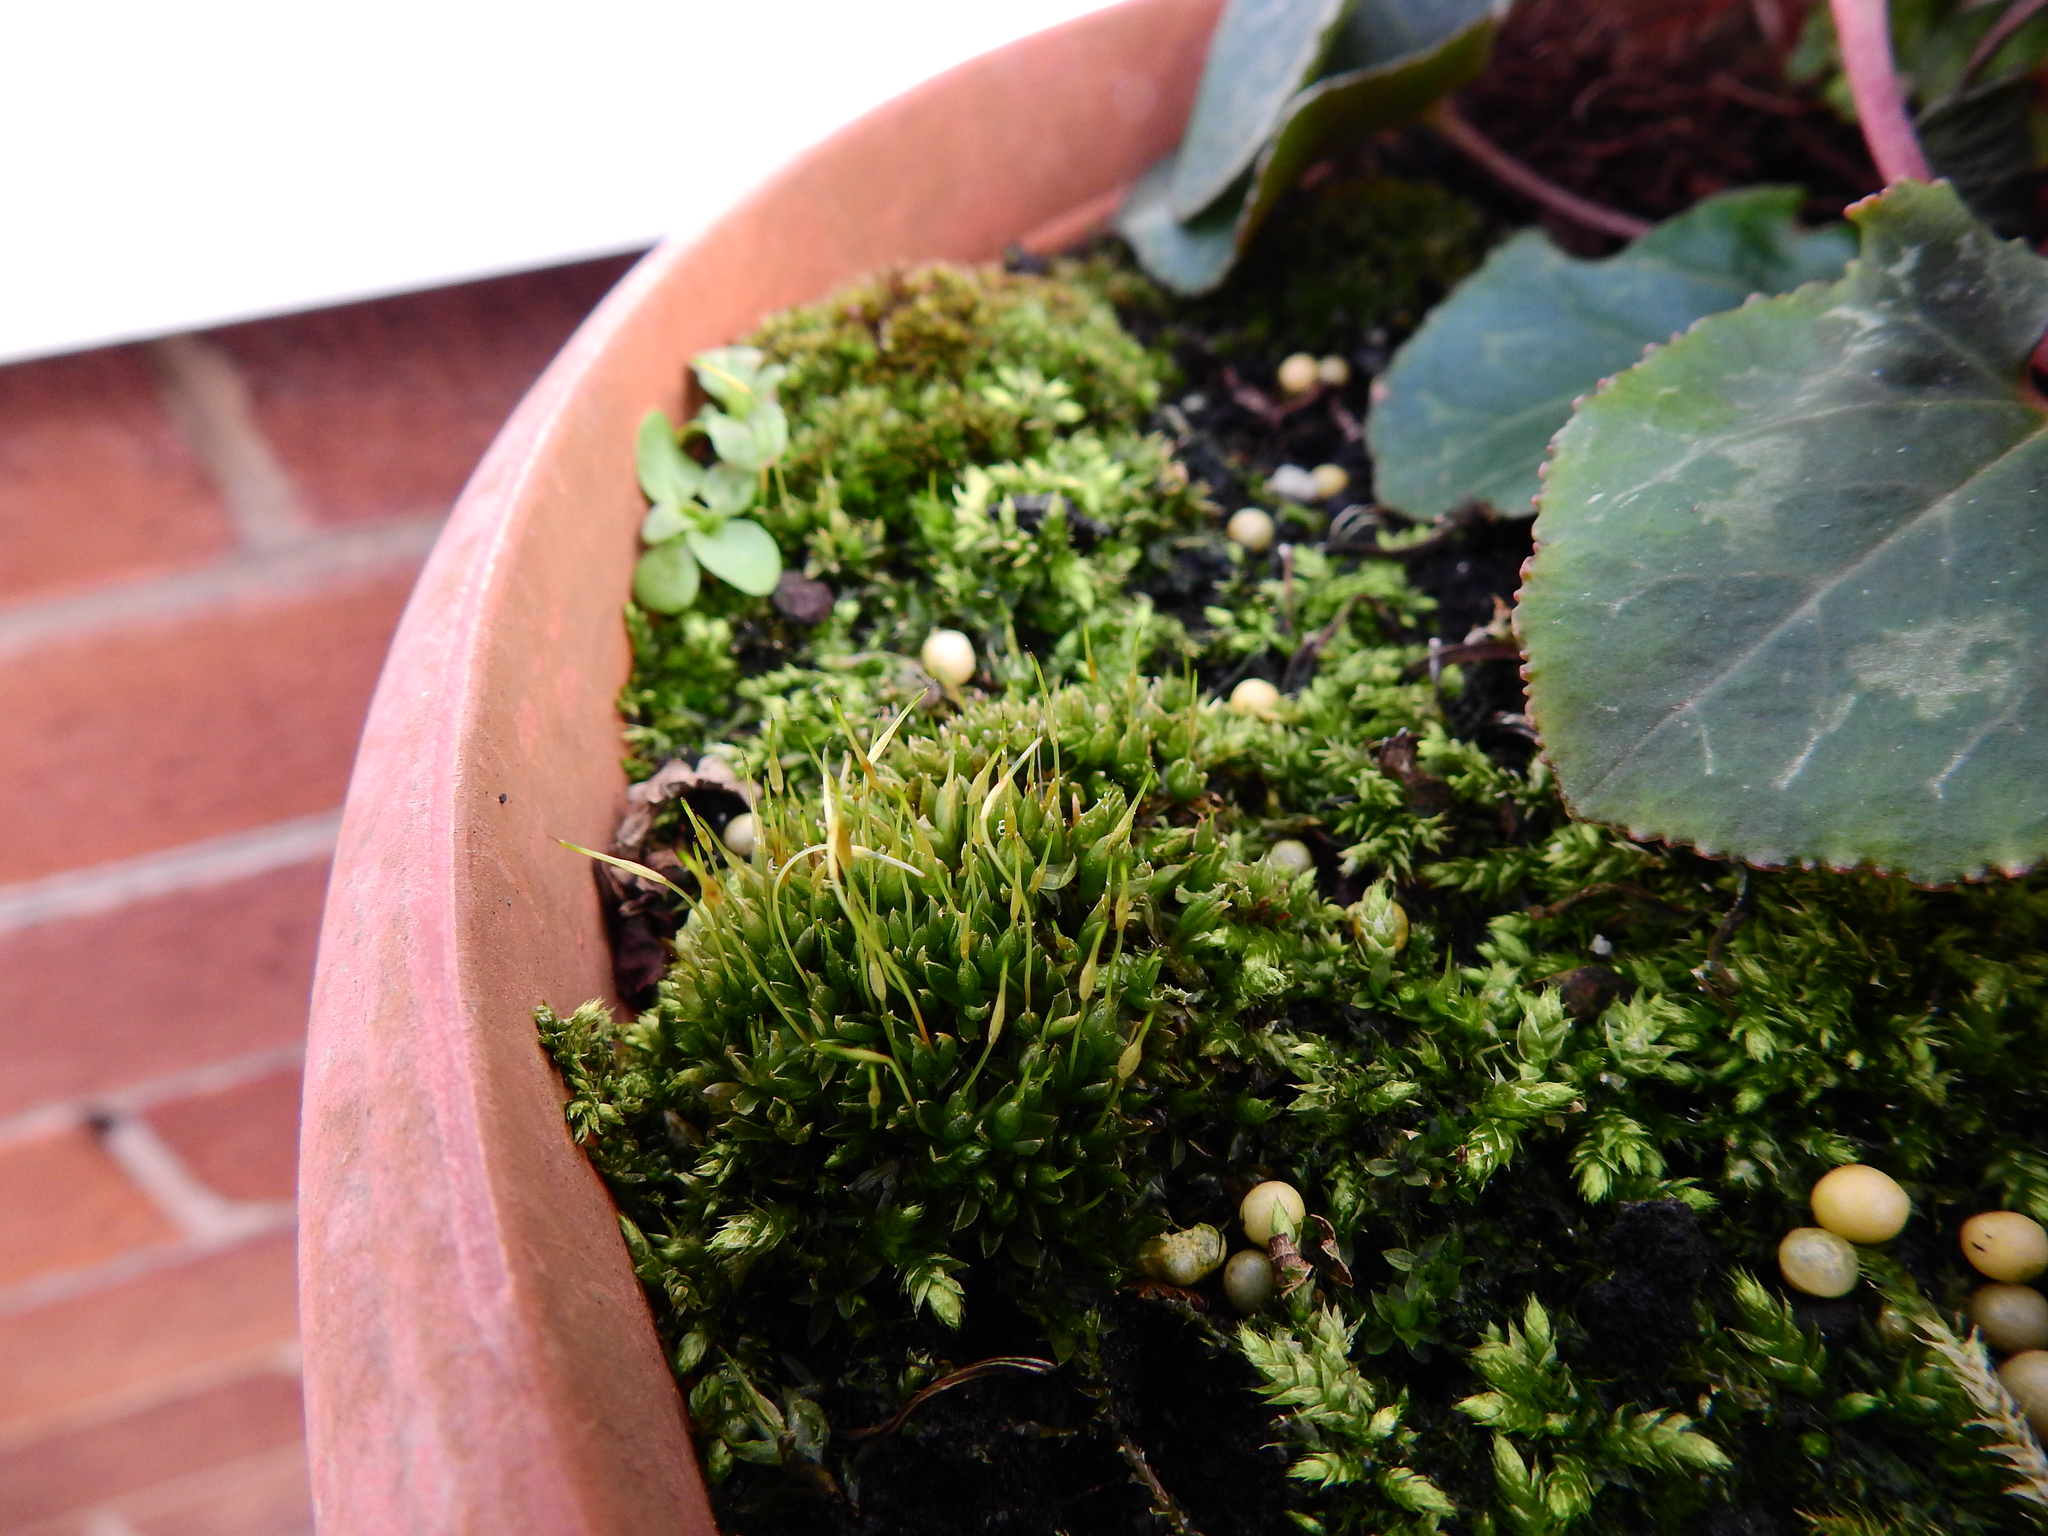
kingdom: Plantae
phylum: Bryophyta
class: Bryopsida
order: Funariales
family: Funariaceae
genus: Funaria
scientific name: Funaria hygrometrica
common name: Common cord moss
